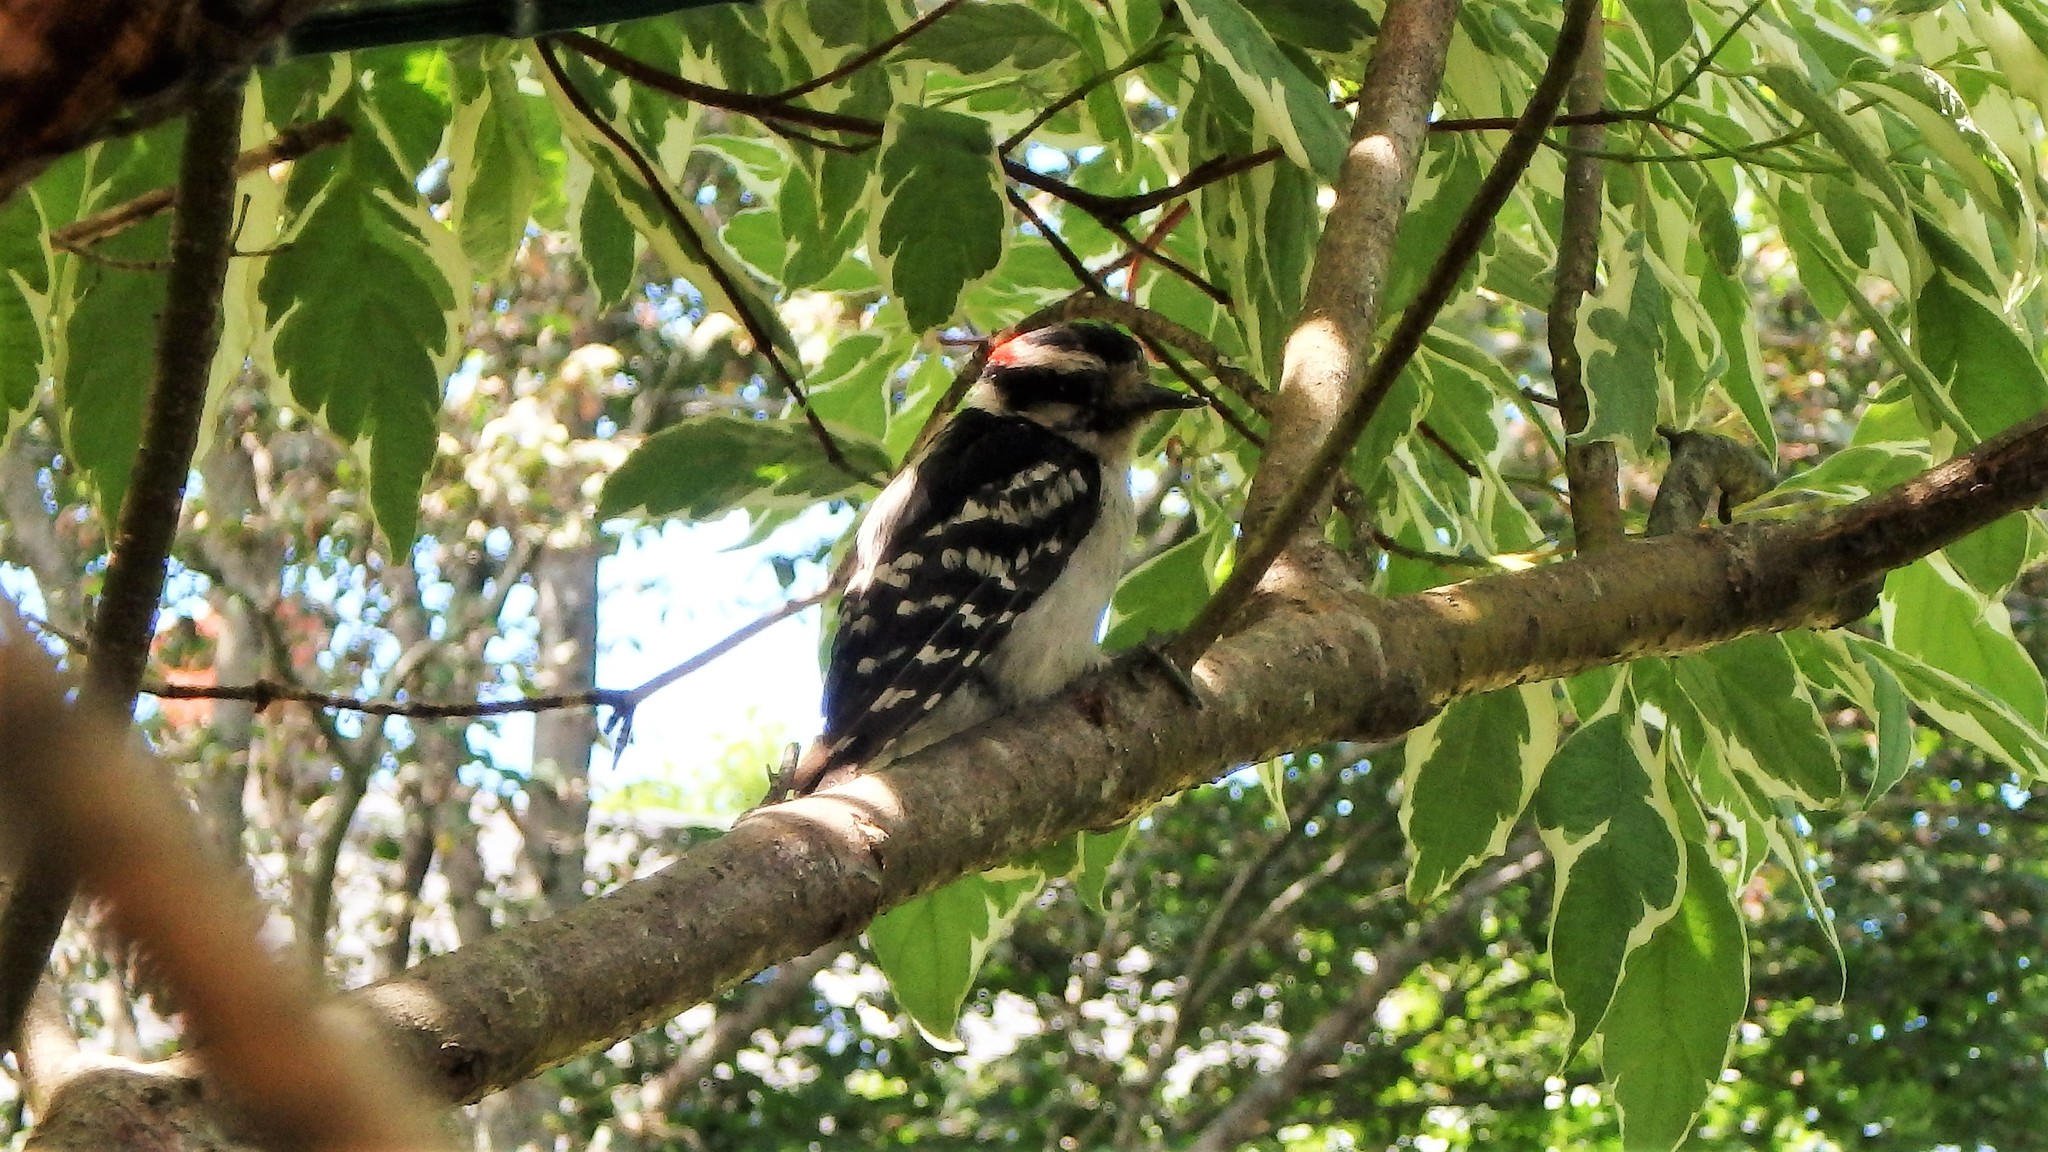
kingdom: Animalia
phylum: Chordata
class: Aves
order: Piciformes
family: Picidae
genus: Dryobates
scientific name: Dryobates pubescens
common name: Downy woodpecker
